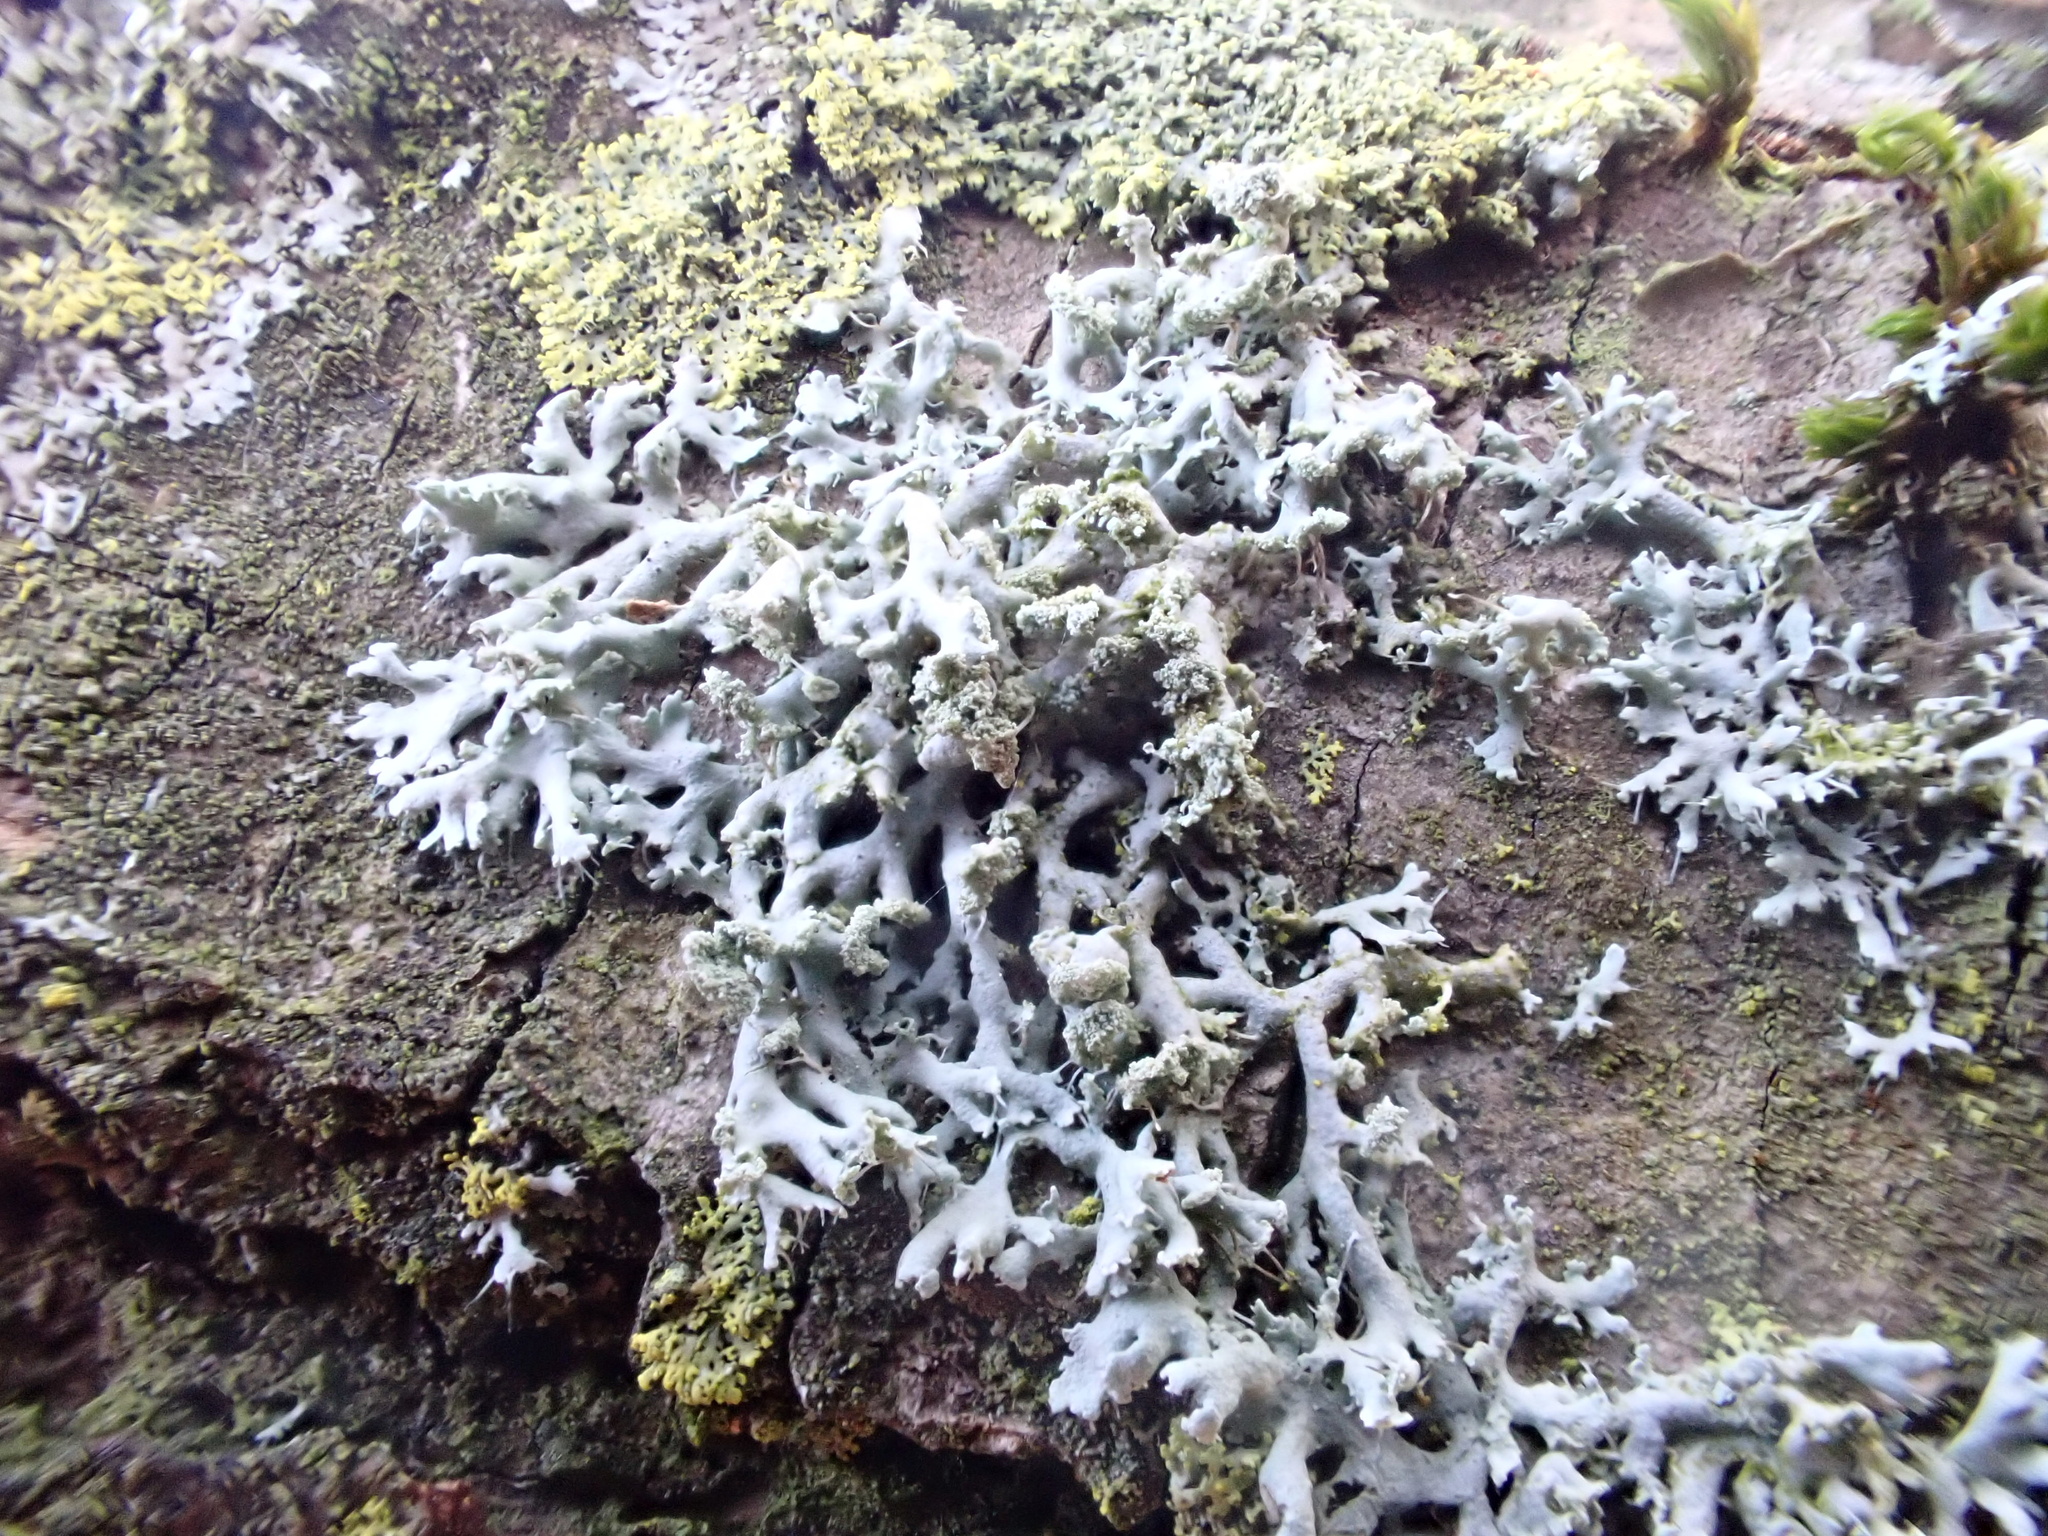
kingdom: Fungi
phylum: Ascomycota
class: Lecanoromycetes
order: Caliciales
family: Physciaceae
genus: Physcia
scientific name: Physcia tenella
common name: Fringed rosette lichen
